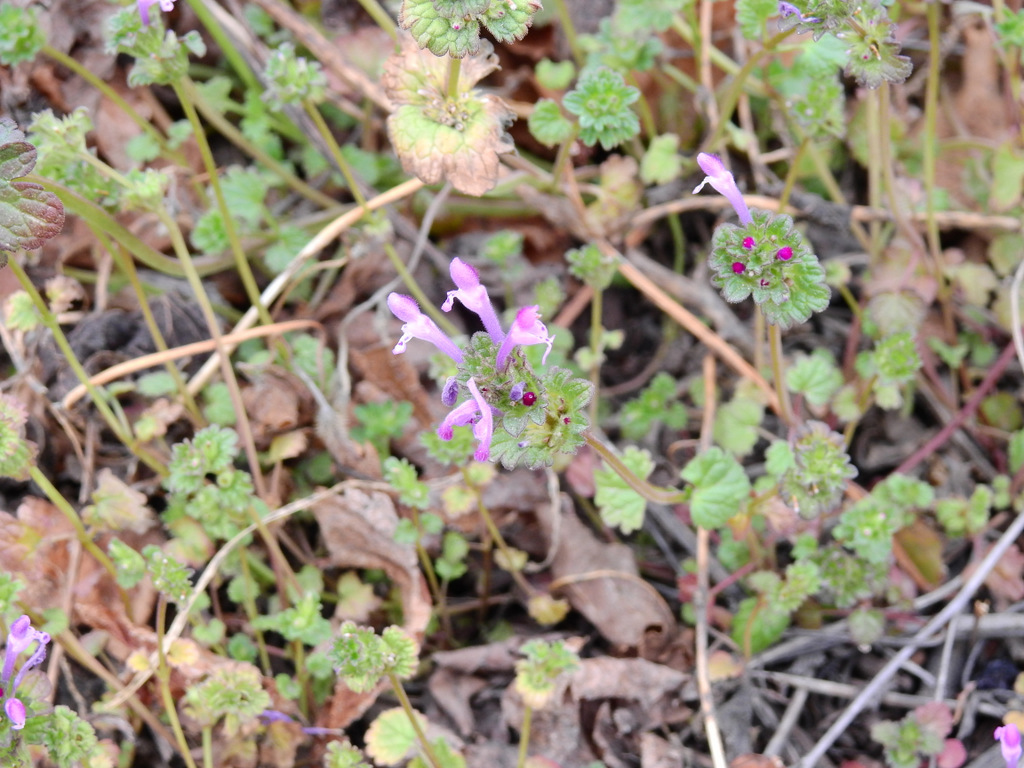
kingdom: Plantae
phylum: Tracheophyta
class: Magnoliopsida
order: Lamiales
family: Lamiaceae
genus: Lamium
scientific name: Lamium amplexicaule
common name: Henbit dead-nettle
